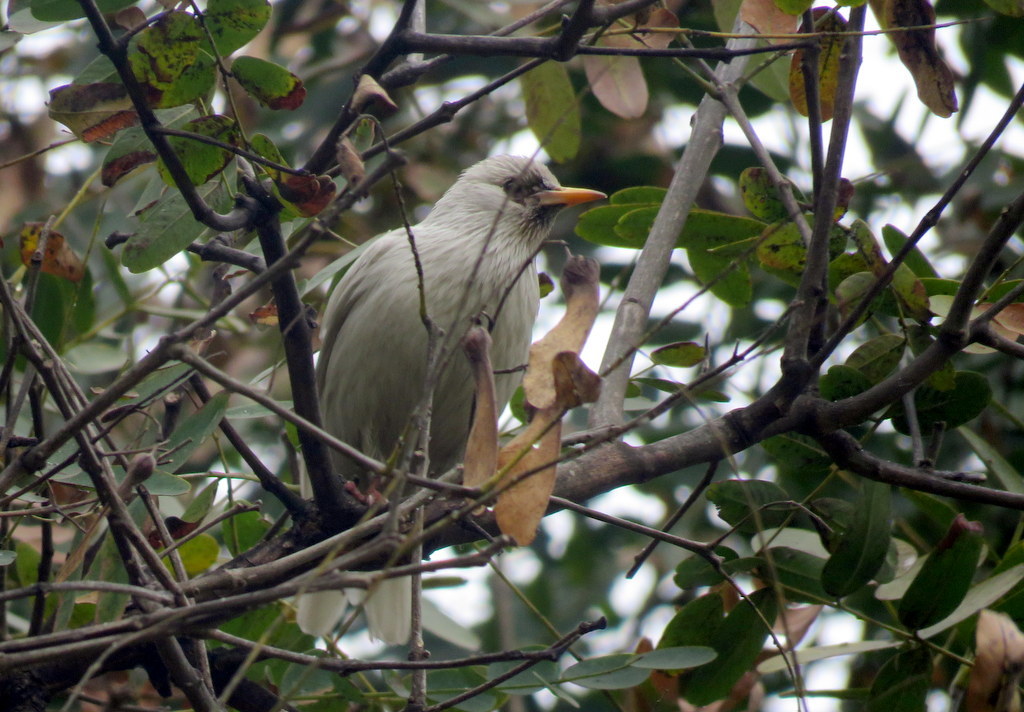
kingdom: Animalia
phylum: Chordata
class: Aves
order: Passeriformes
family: Sturnidae
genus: Sturnus
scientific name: Sturnus vulgaris
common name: Common starling
